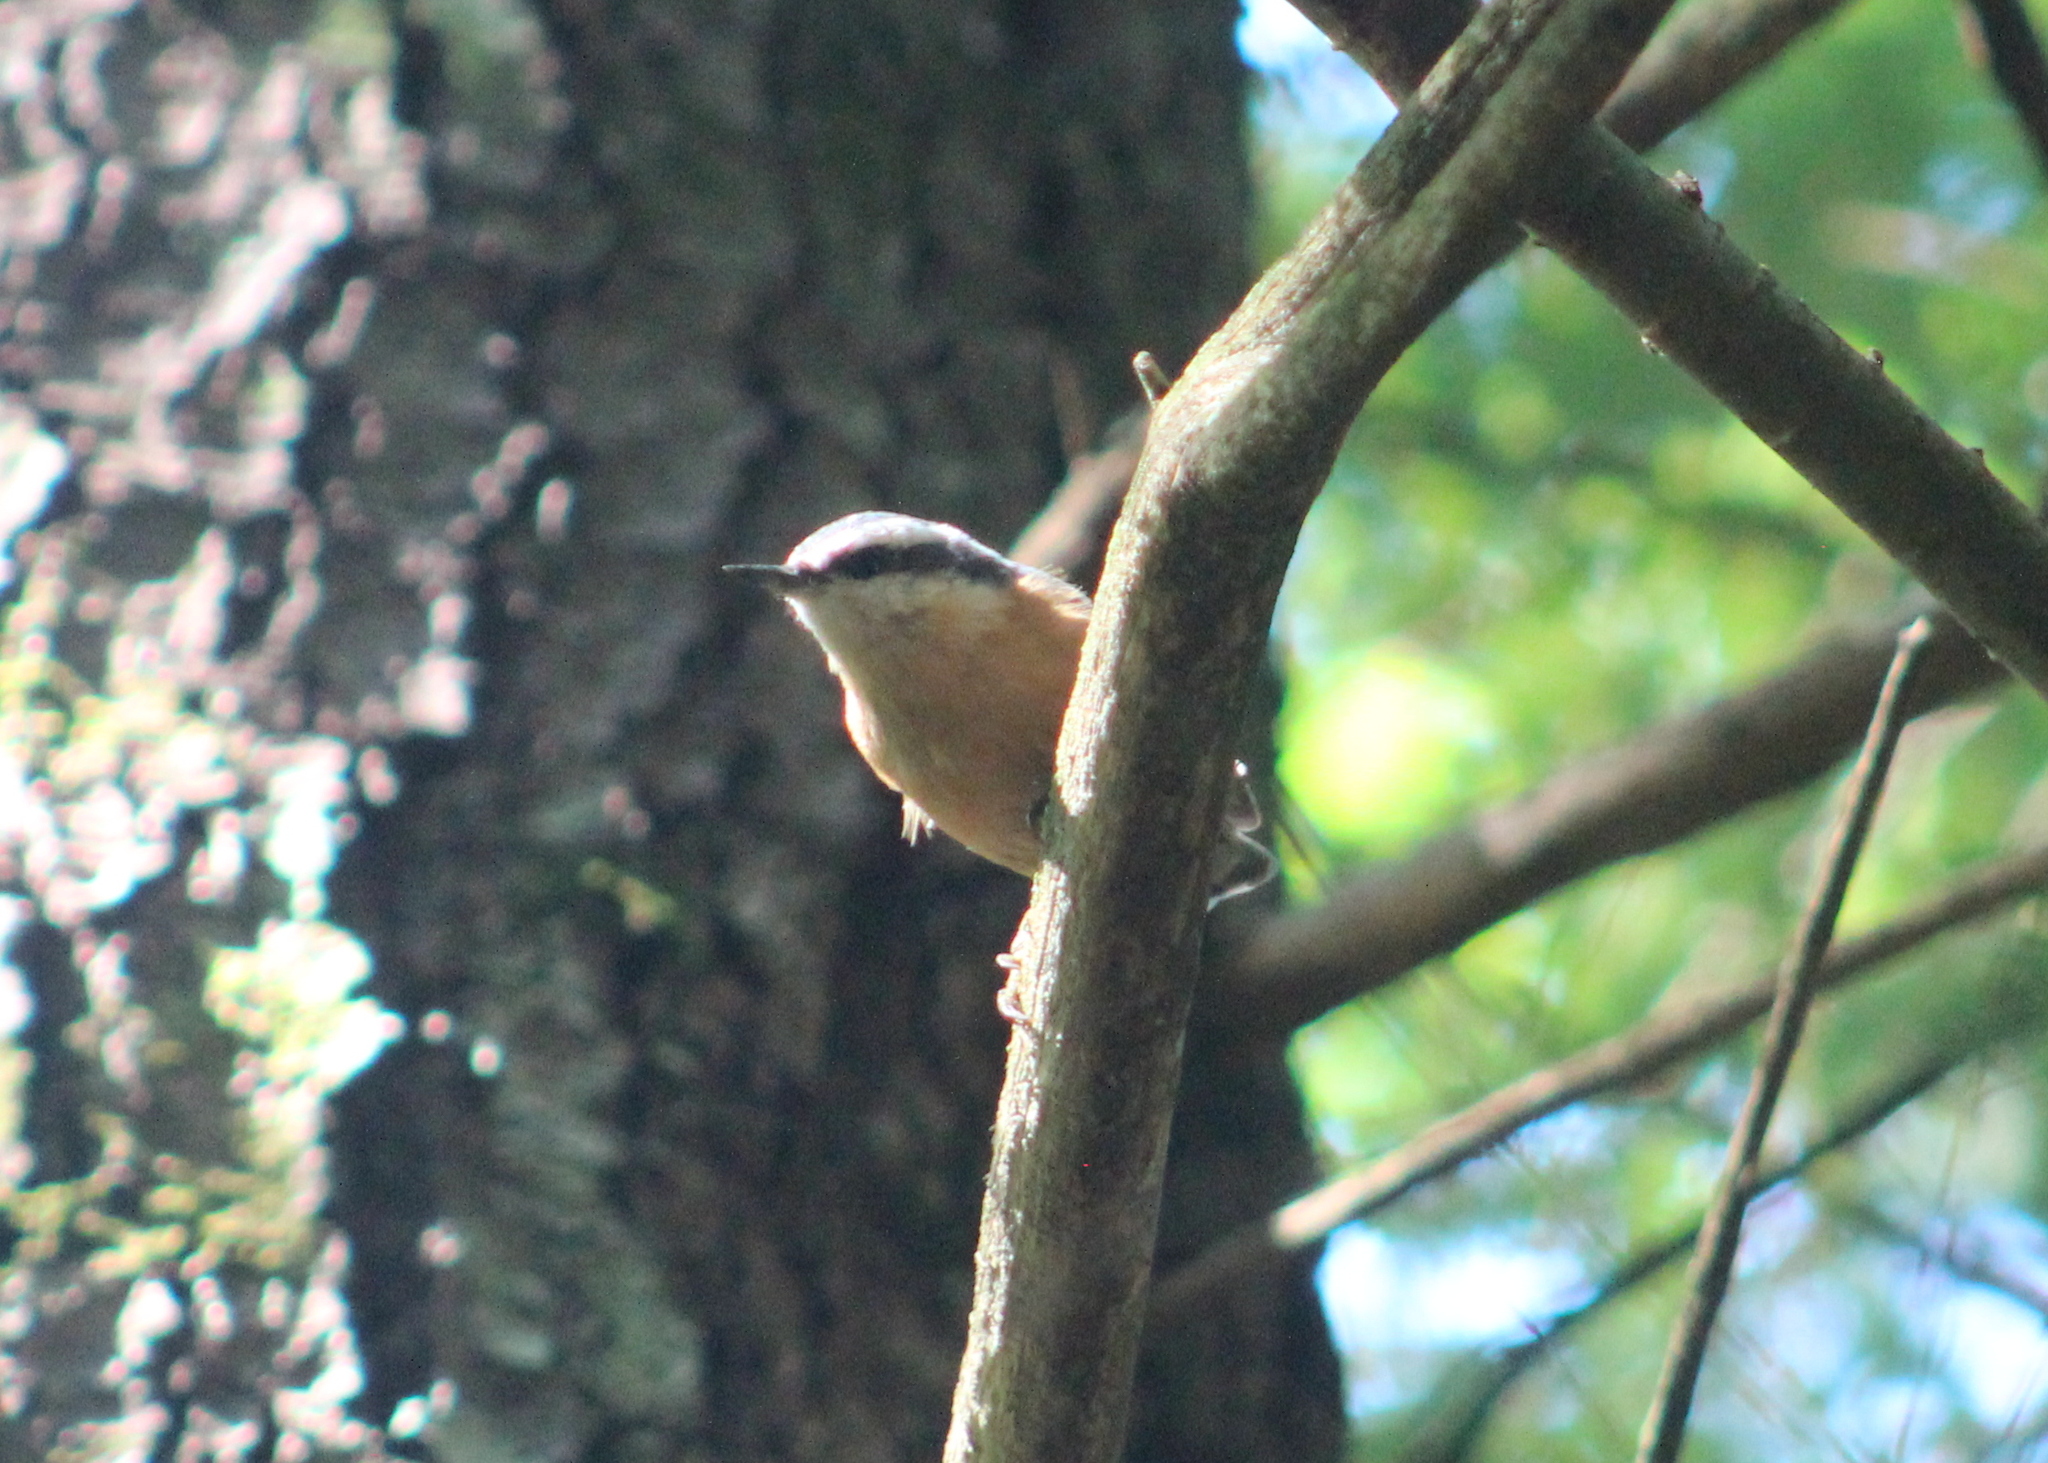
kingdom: Animalia
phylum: Chordata
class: Aves
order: Passeriformes
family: Sittidae
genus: Sitta
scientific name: Sitta canadensis
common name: Red-breasted nuthatch
